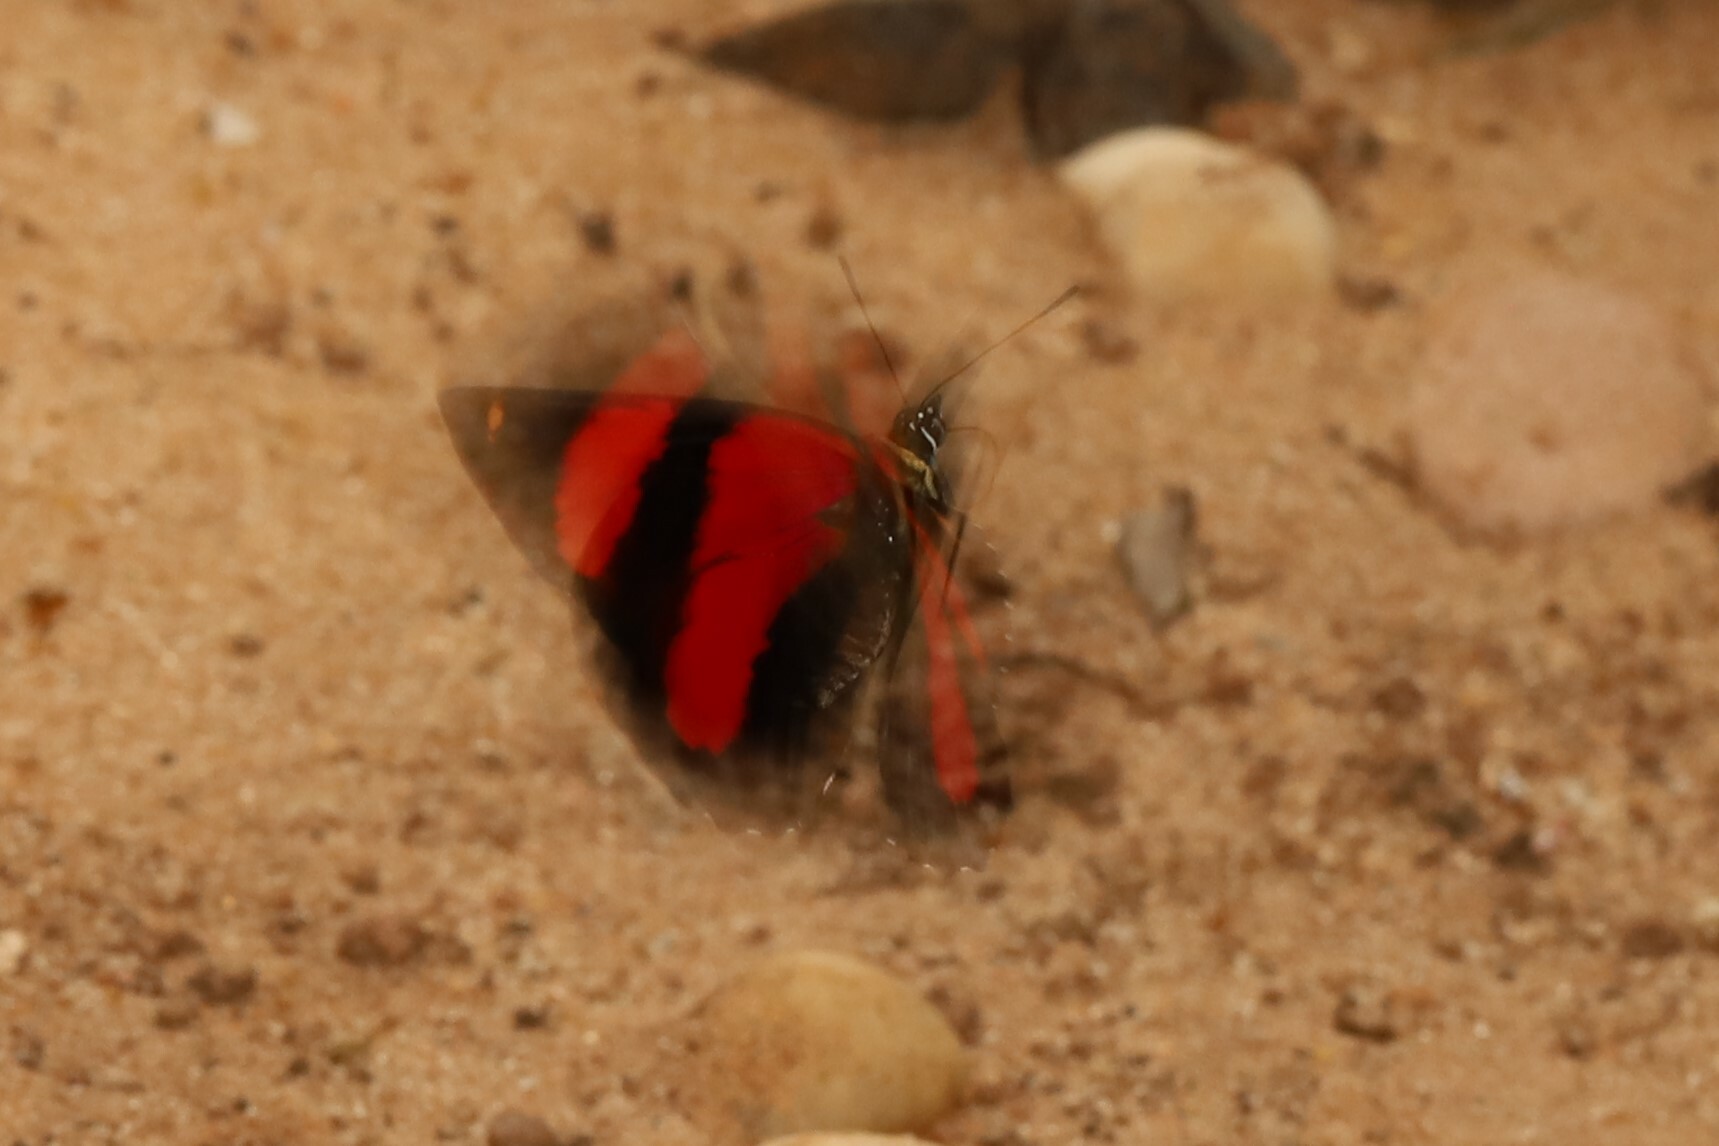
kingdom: Animalia
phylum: Arthropoda
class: Insecta
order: Lepidoptera
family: Nymphalidae
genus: Catagramma
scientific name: Catagramma astarte
